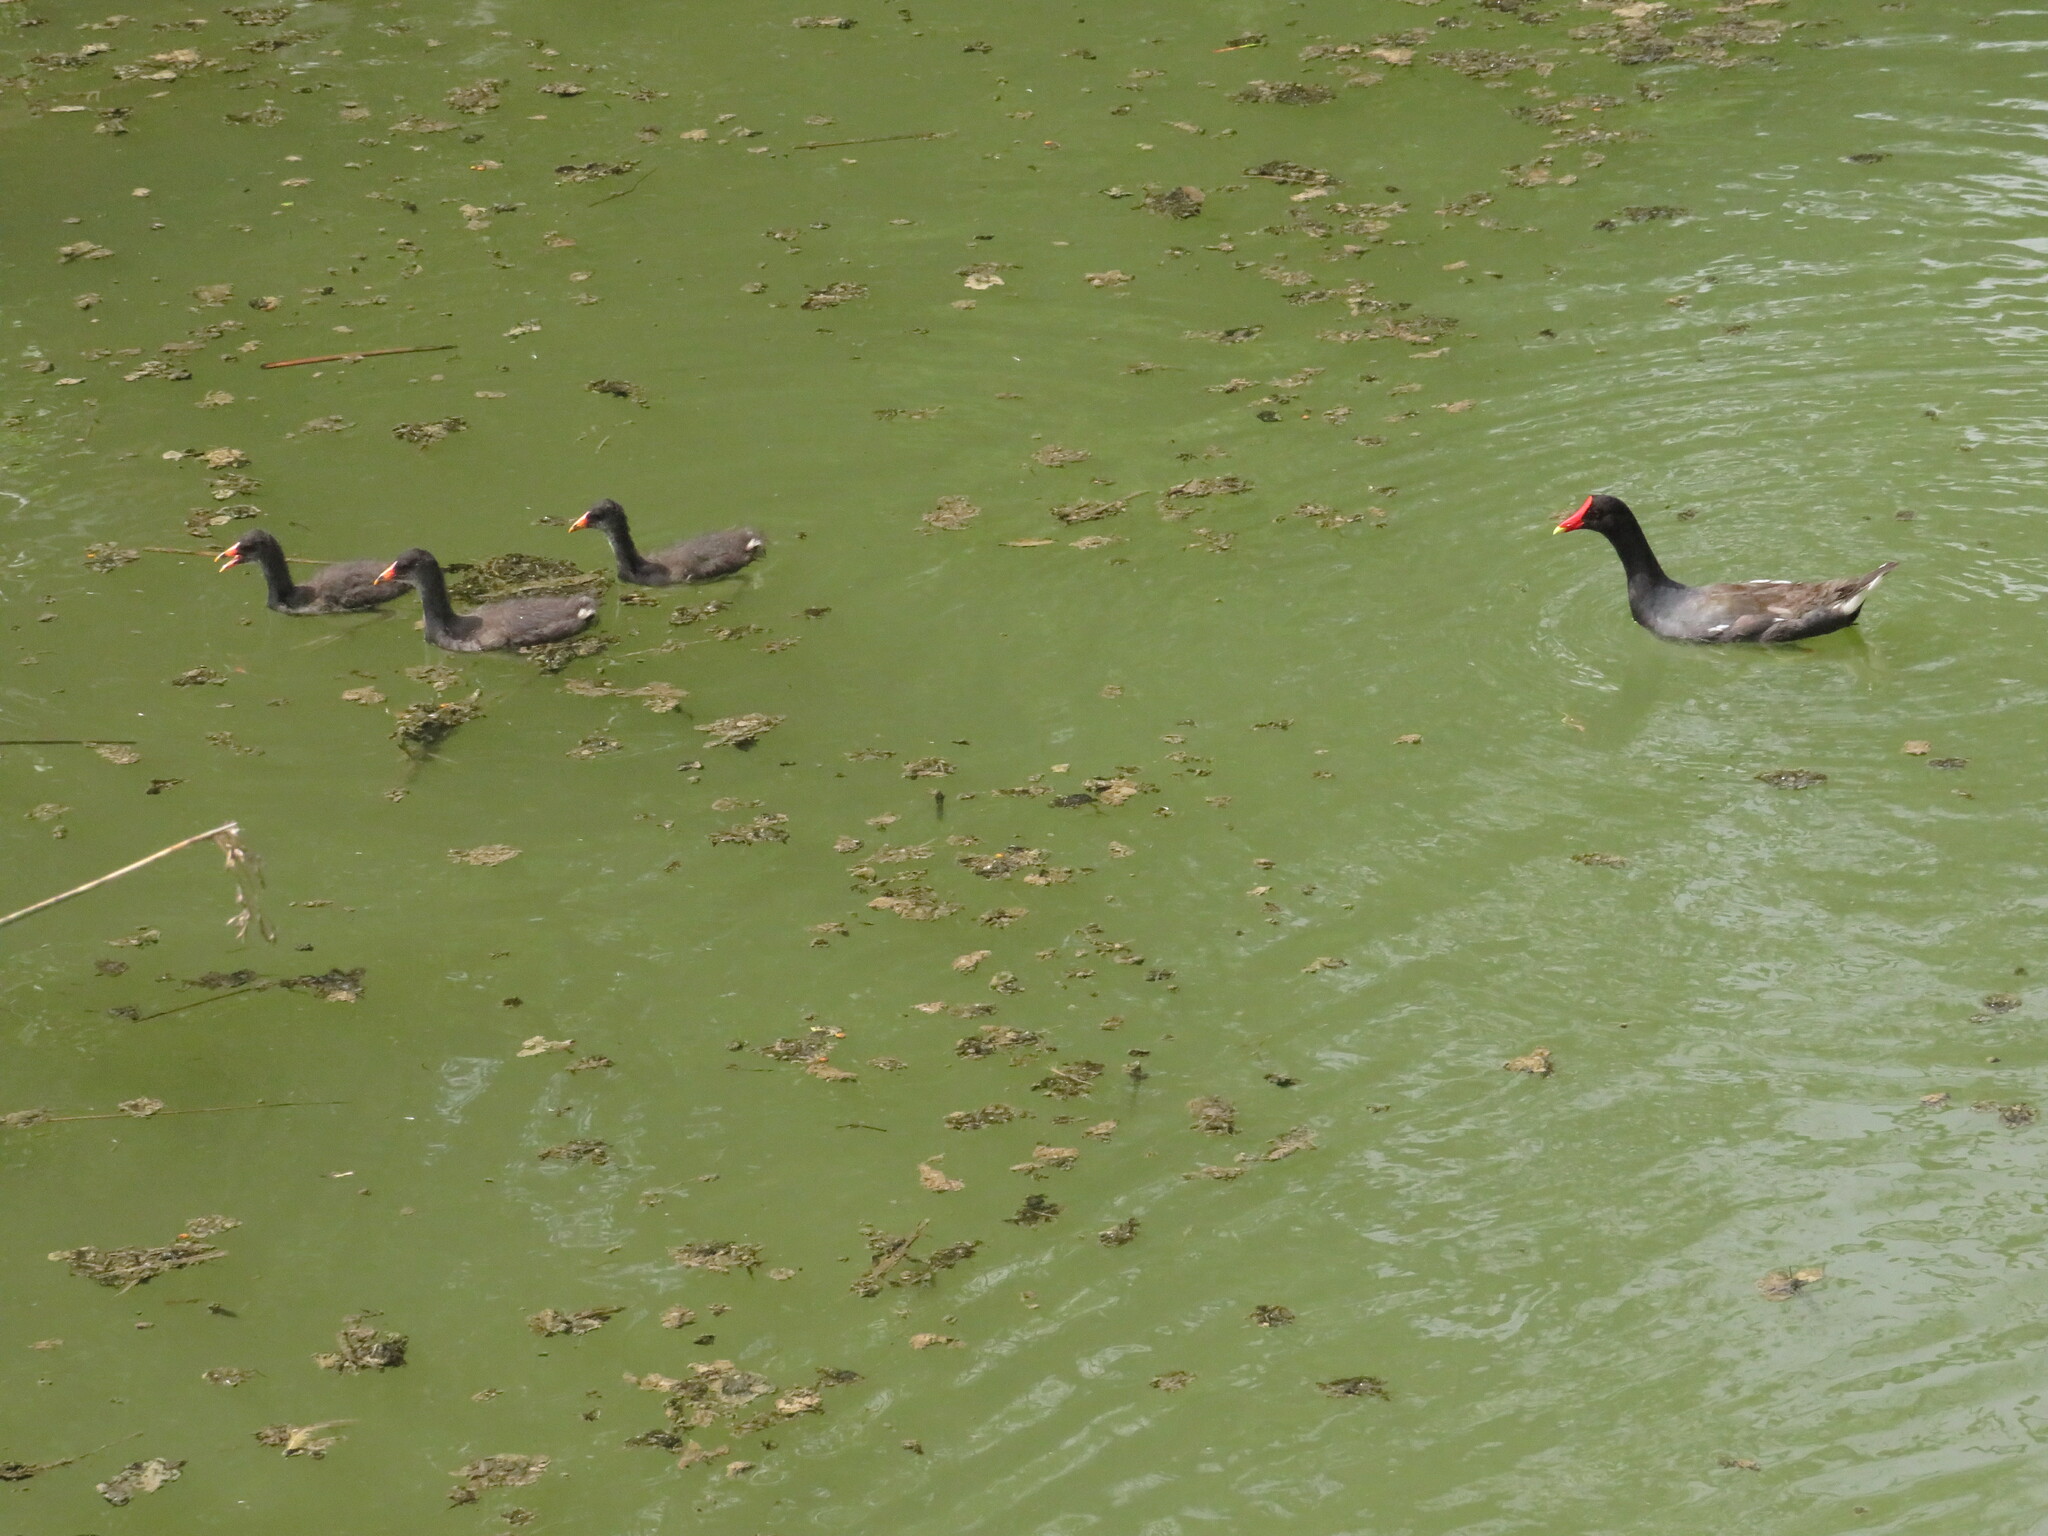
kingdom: Animalia
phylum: Chordata
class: Aves
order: Gruiformes
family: Rallidae
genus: Gallinula
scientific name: Gallinula chloropus
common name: Common moorhen
